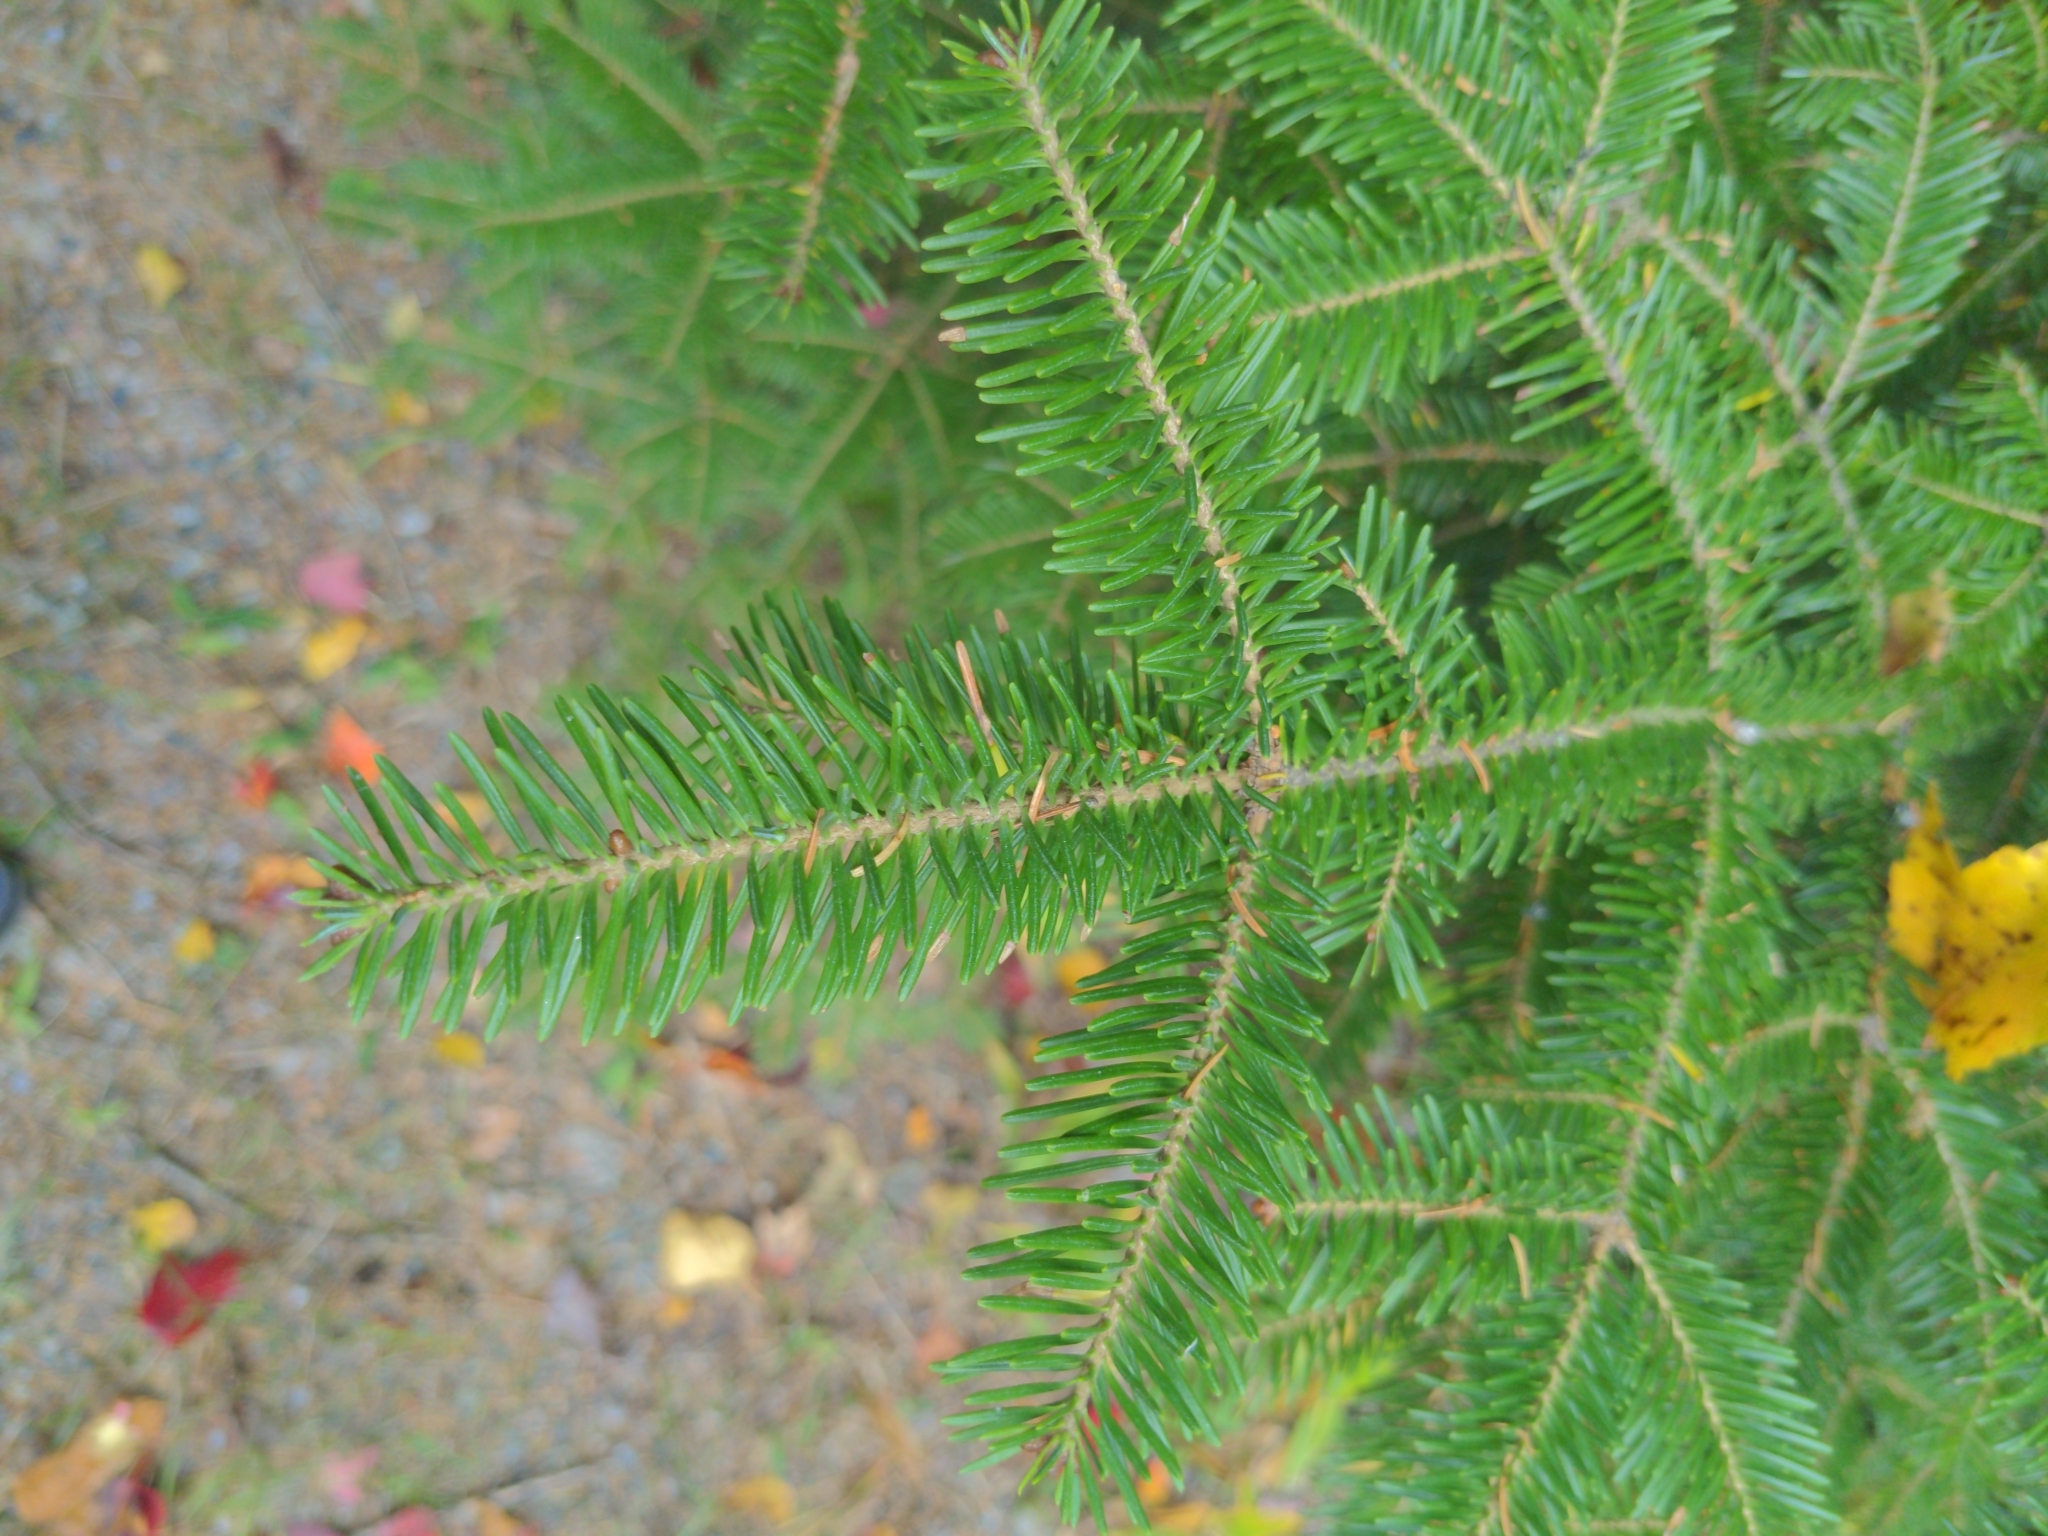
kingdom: Plantae
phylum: Tracheophyta
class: Pinopsida
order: Pinales
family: Pinaceae
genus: Abies
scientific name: Abies balsamea
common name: Balsam fir
